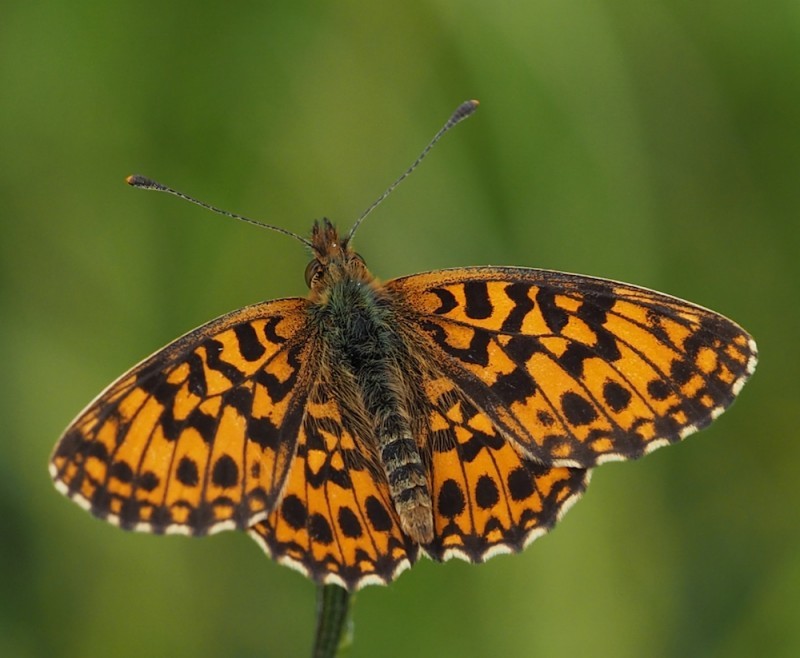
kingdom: Animalia
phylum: Arthropoda
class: Insecta
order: Lepidoptera
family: Nymphalidae
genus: Boloria
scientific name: Boloria dia
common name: Weaver's fritillary
